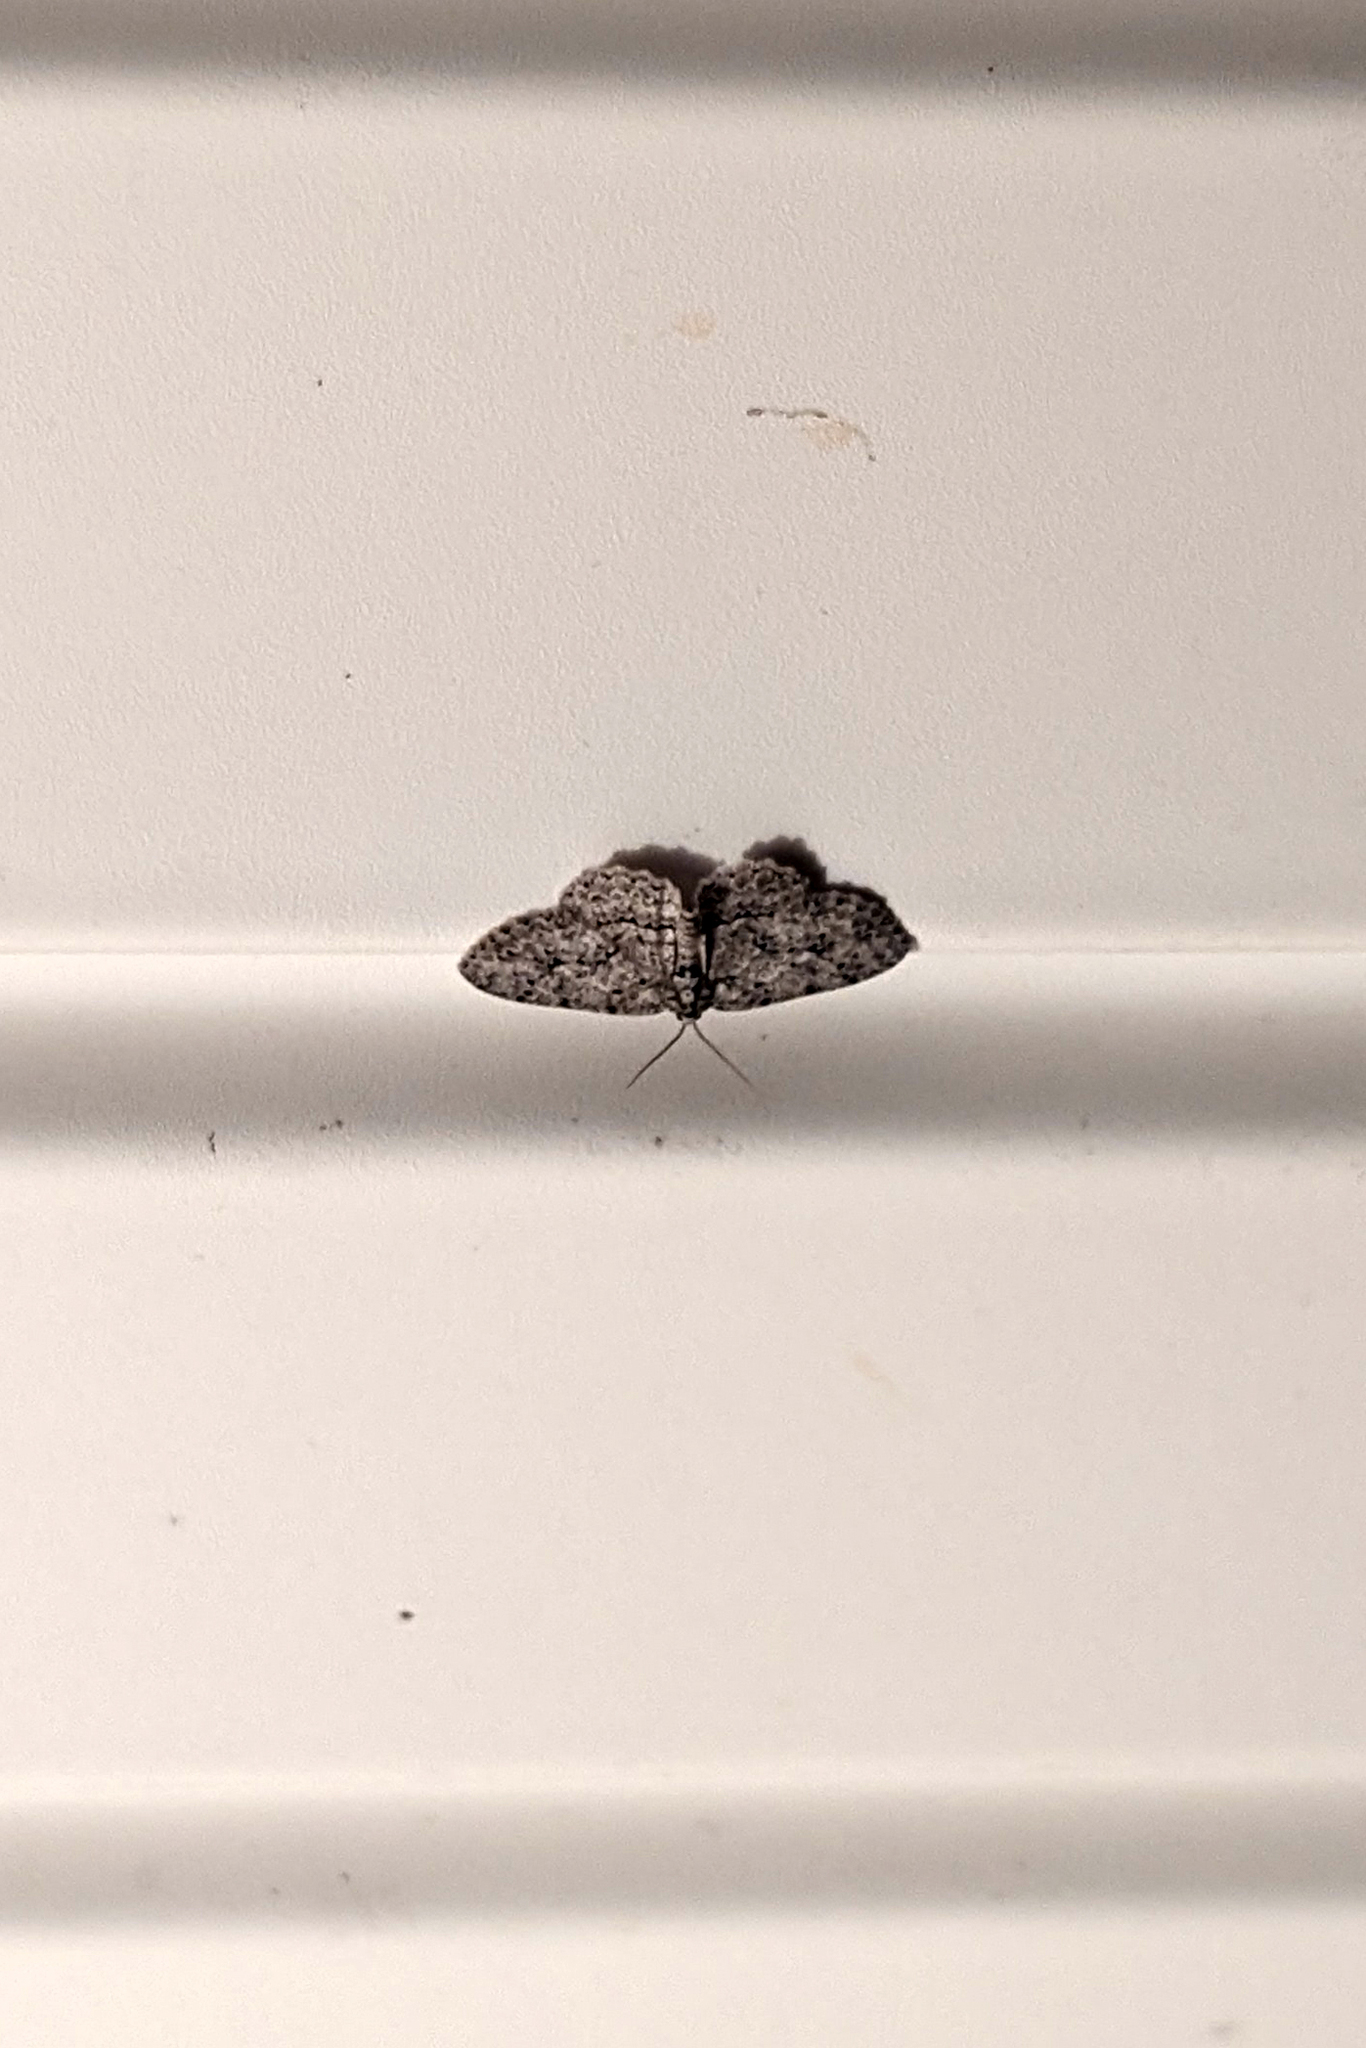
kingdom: Animalia
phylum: Arthropoda
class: Insecta
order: Lepidoptera
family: Geometridae
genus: Ectropis
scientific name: Ectropis crepuscularia
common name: Engrailed
